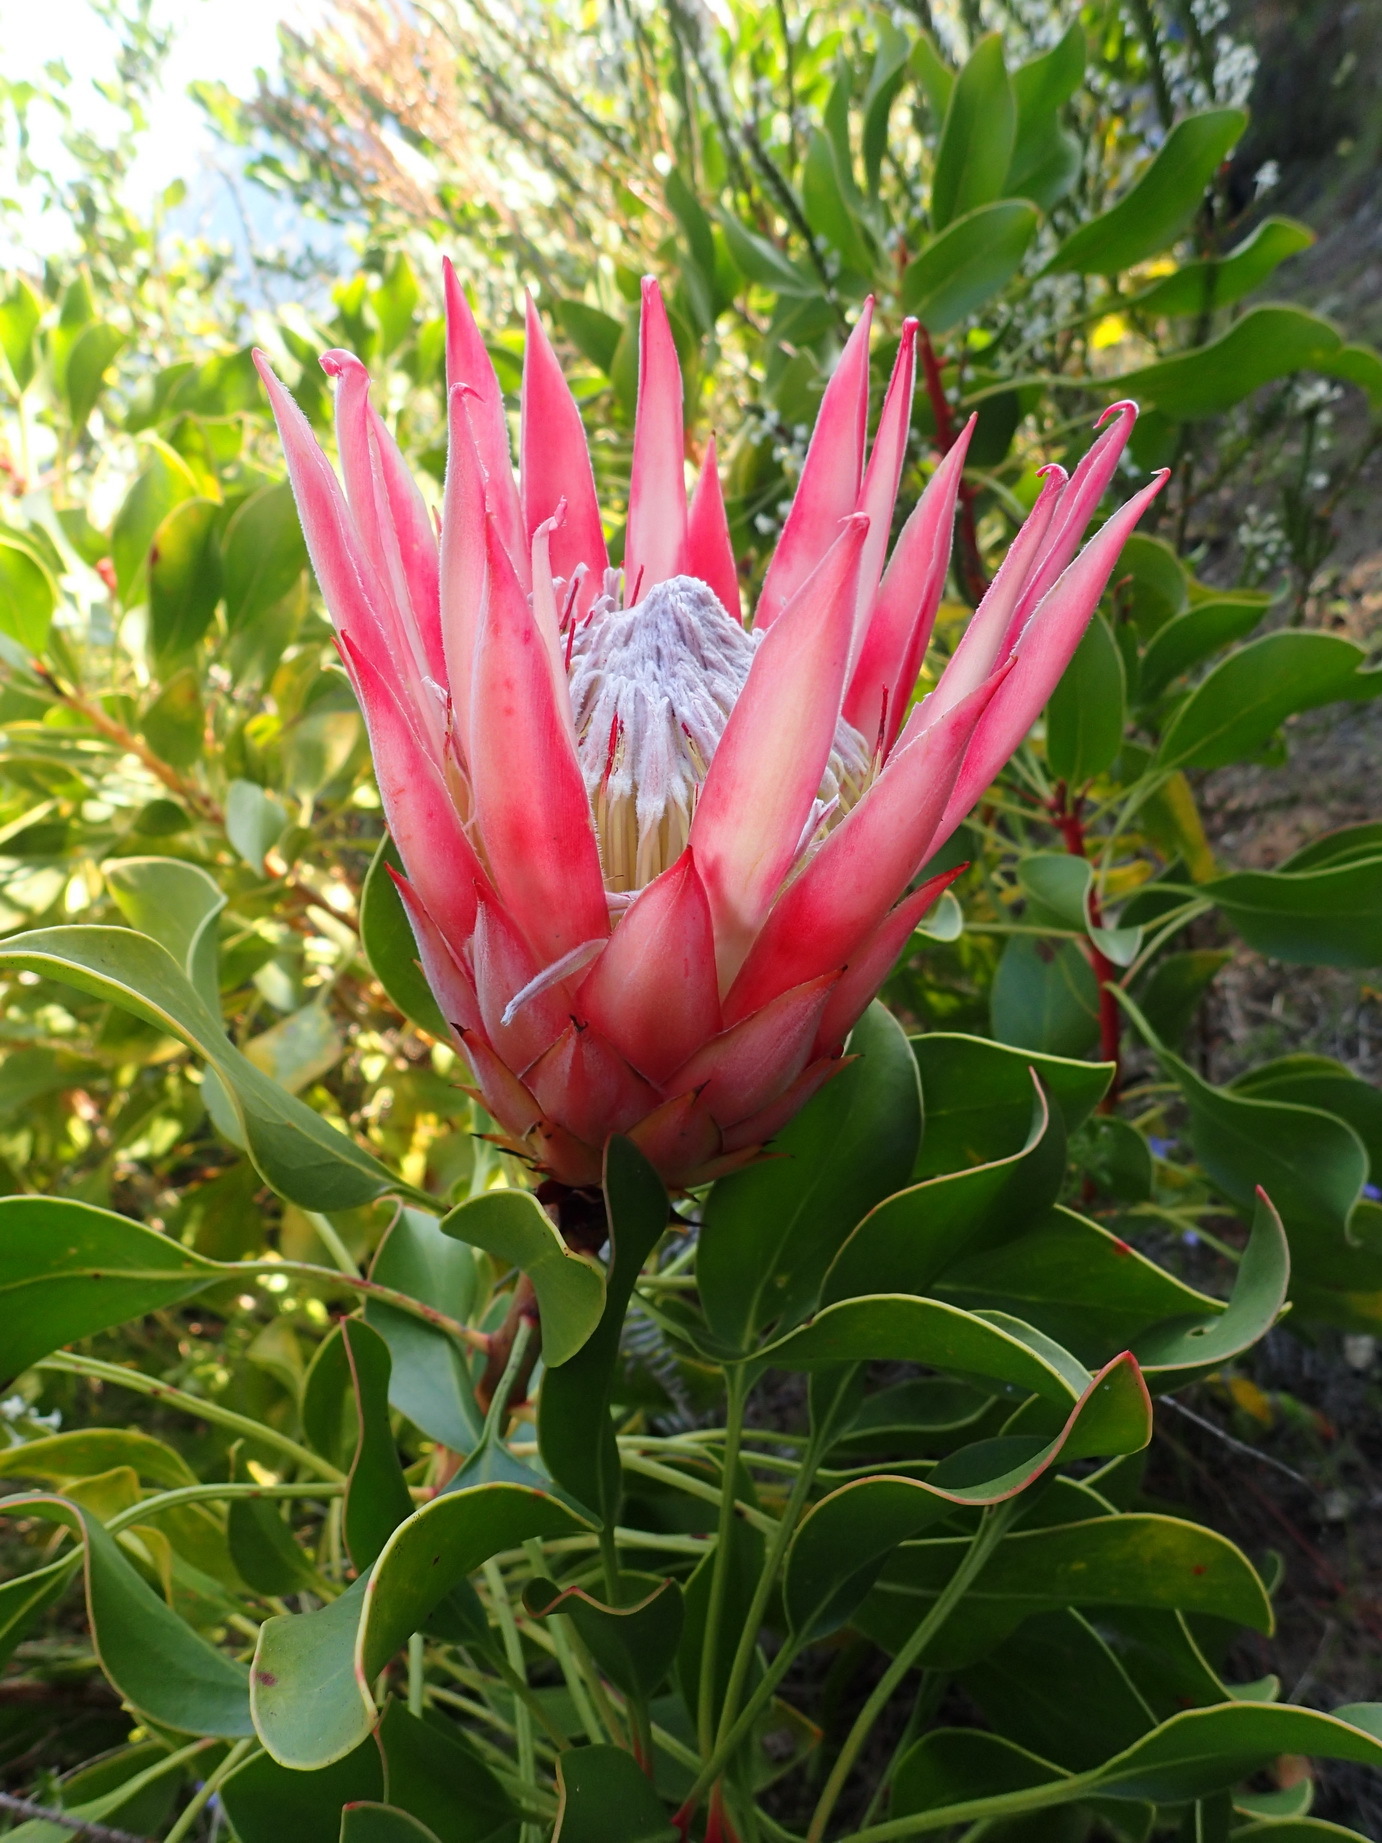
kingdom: Plantae
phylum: Tracheophyta
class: Magnoliopsida
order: Proteales
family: Proteaceae
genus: Protea
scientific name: Protea cynaroides
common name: King protea
